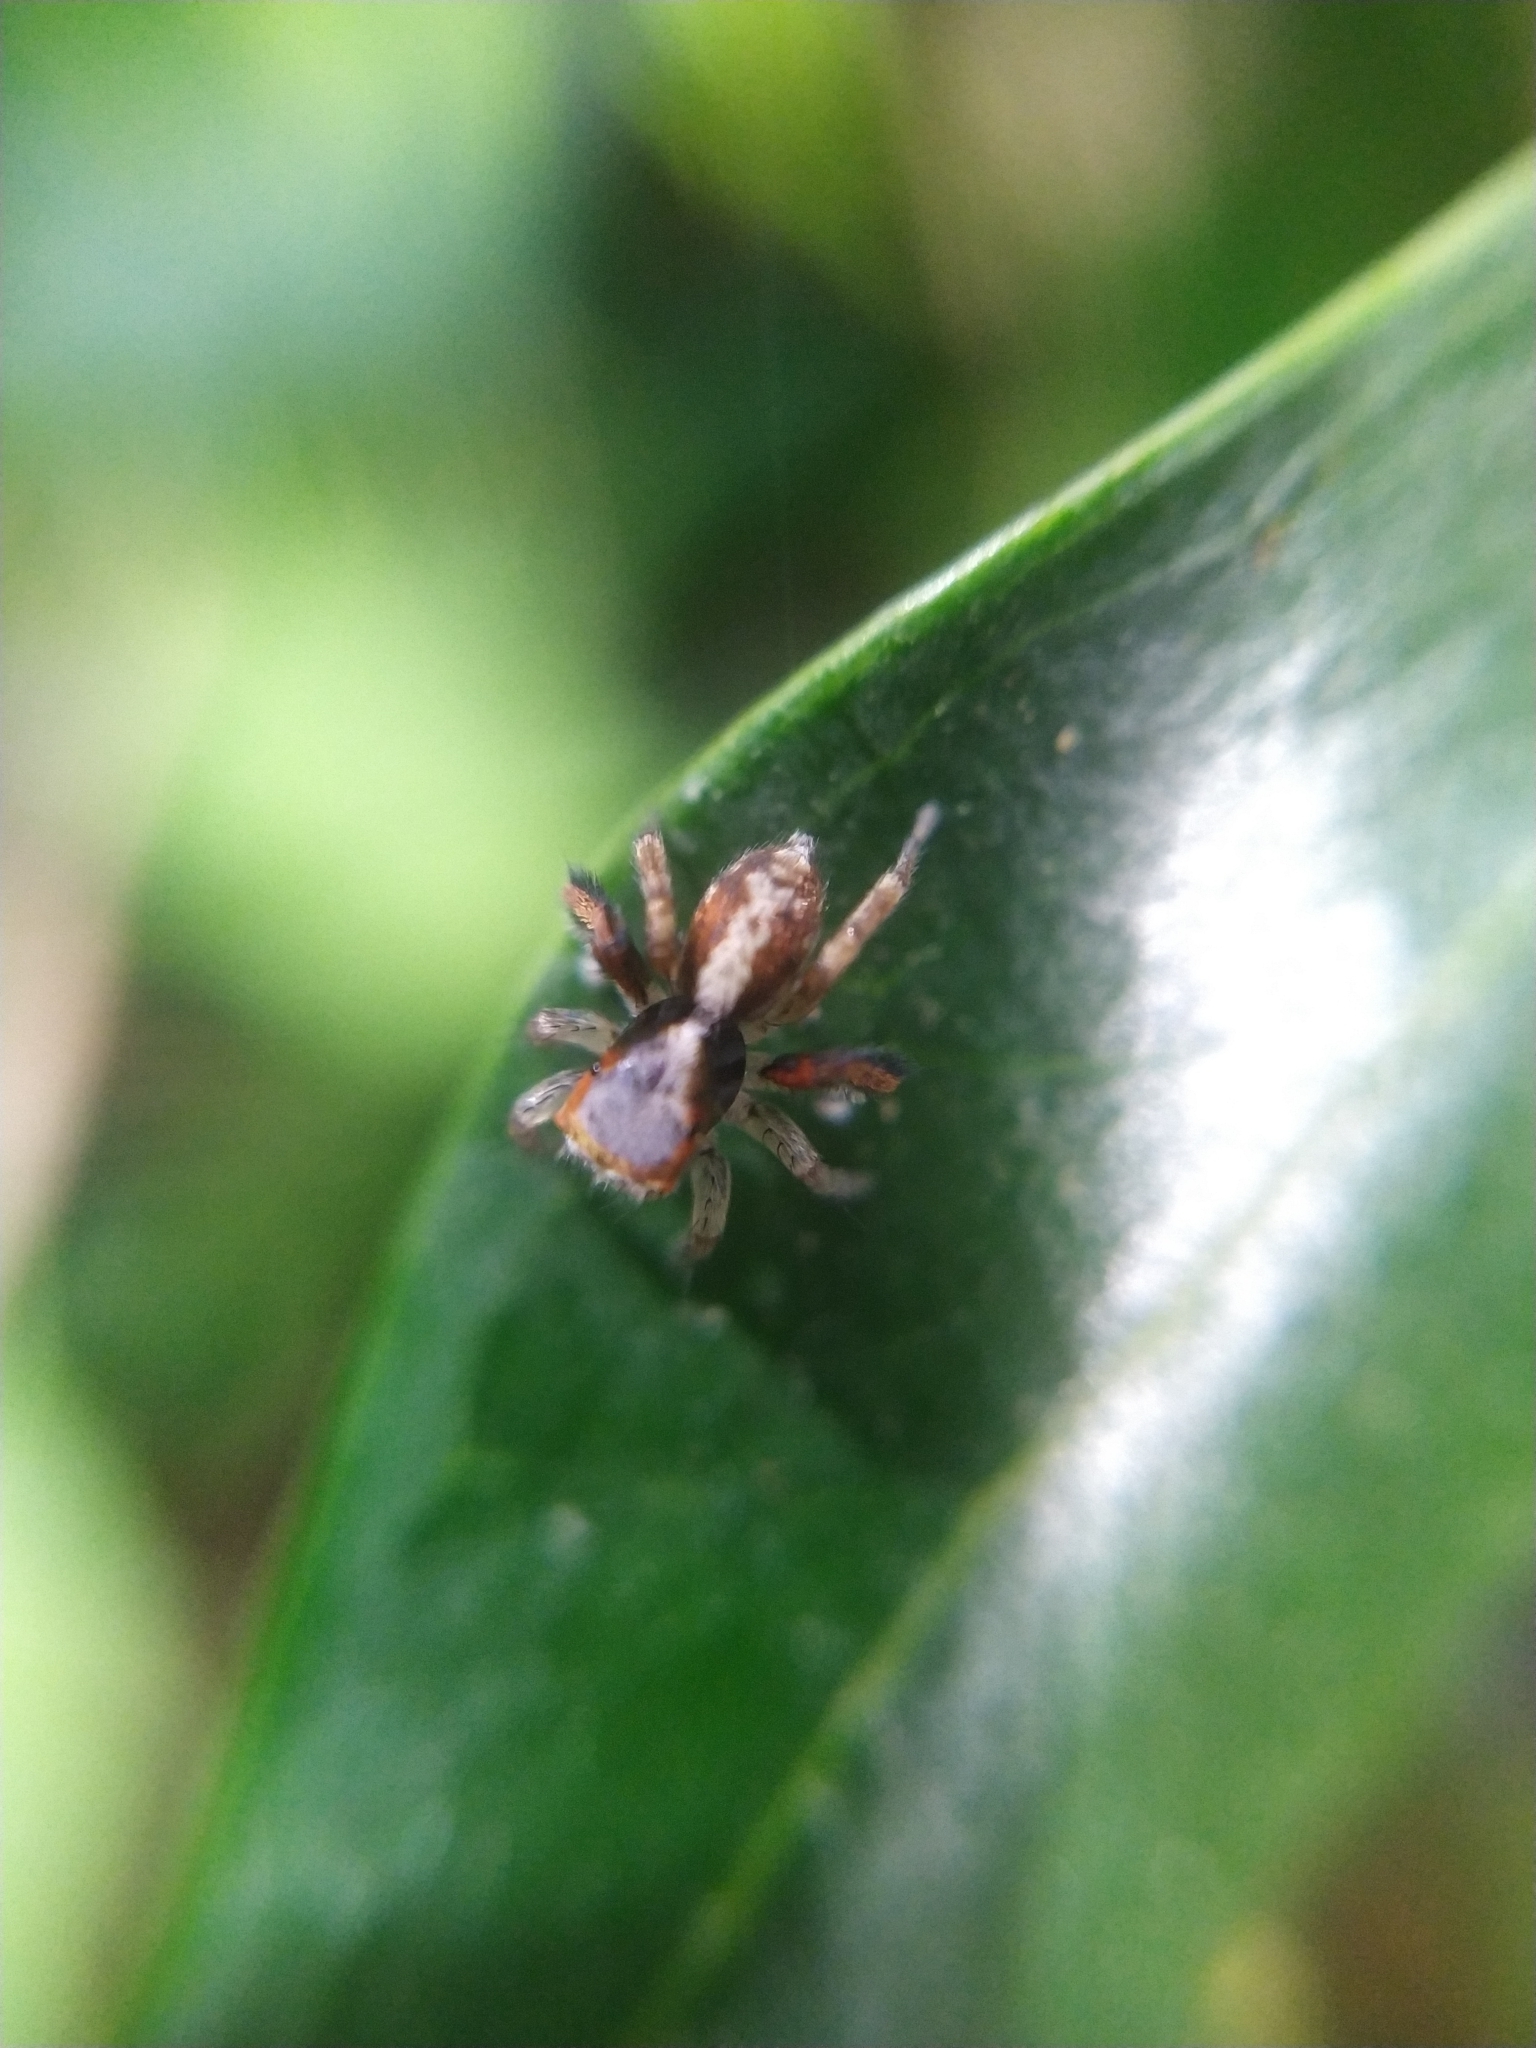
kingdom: Animalia
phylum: Arthropoda
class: Arachnida
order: Araneae
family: Salticidae
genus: Saitis
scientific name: Saitis barbipes
